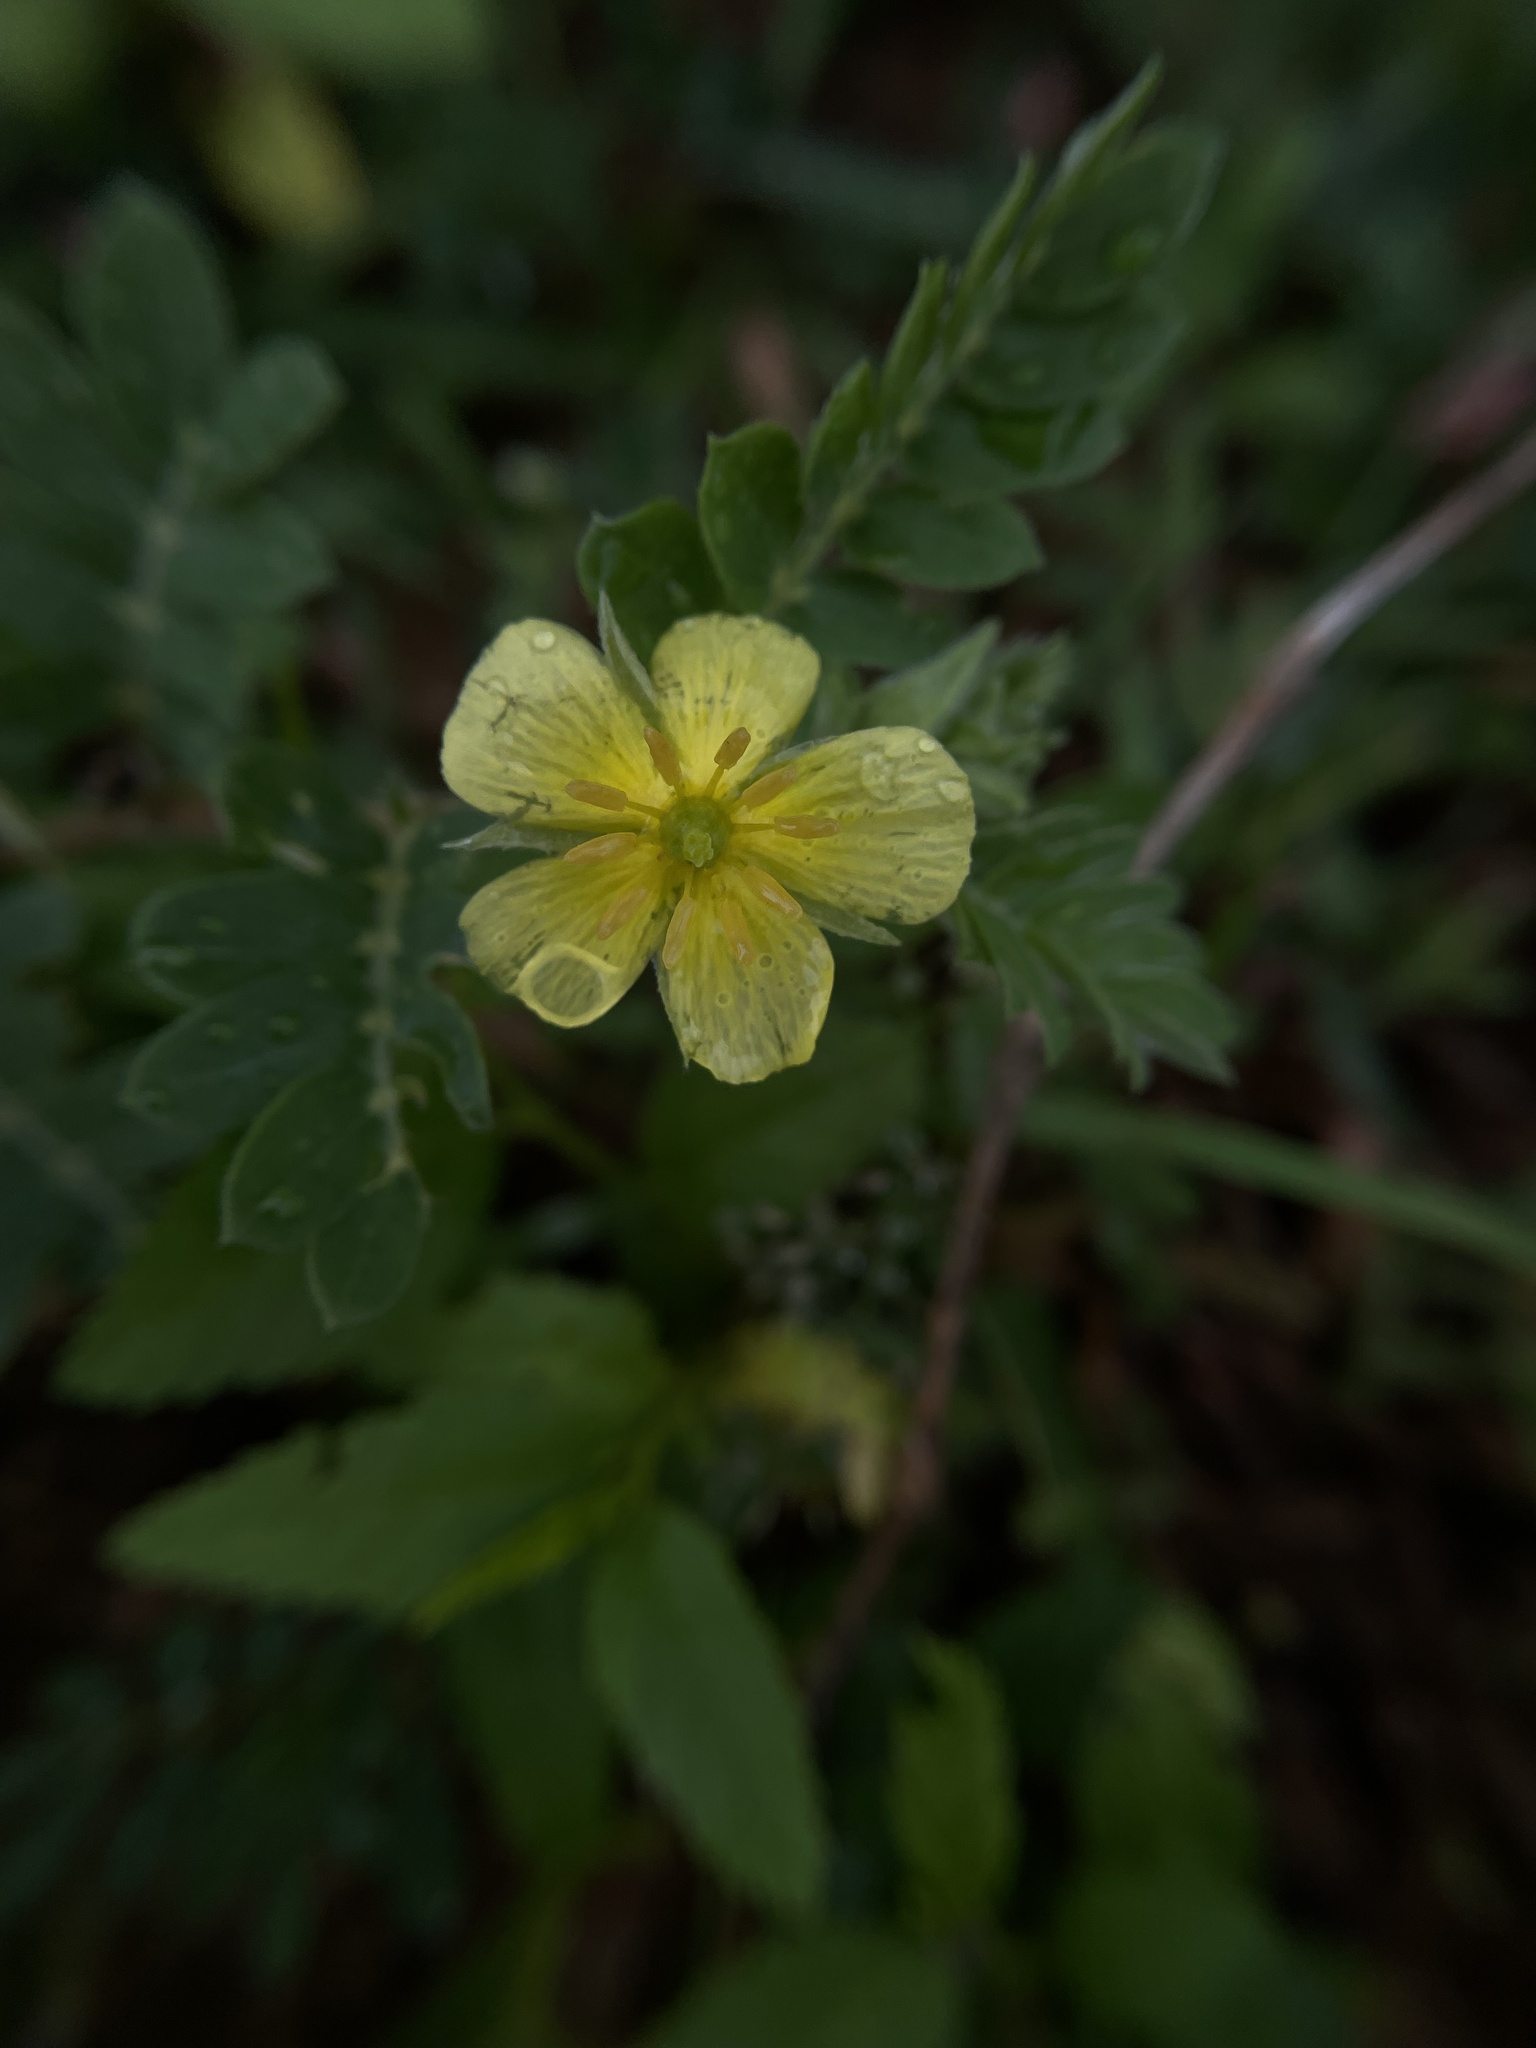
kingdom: Plantae
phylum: Tracheophyta
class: Magnoliopsida
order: Zygophyllales
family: Zygophyllaceae
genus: Tribulus
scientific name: Tribulus terrestris
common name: Puncturevine
